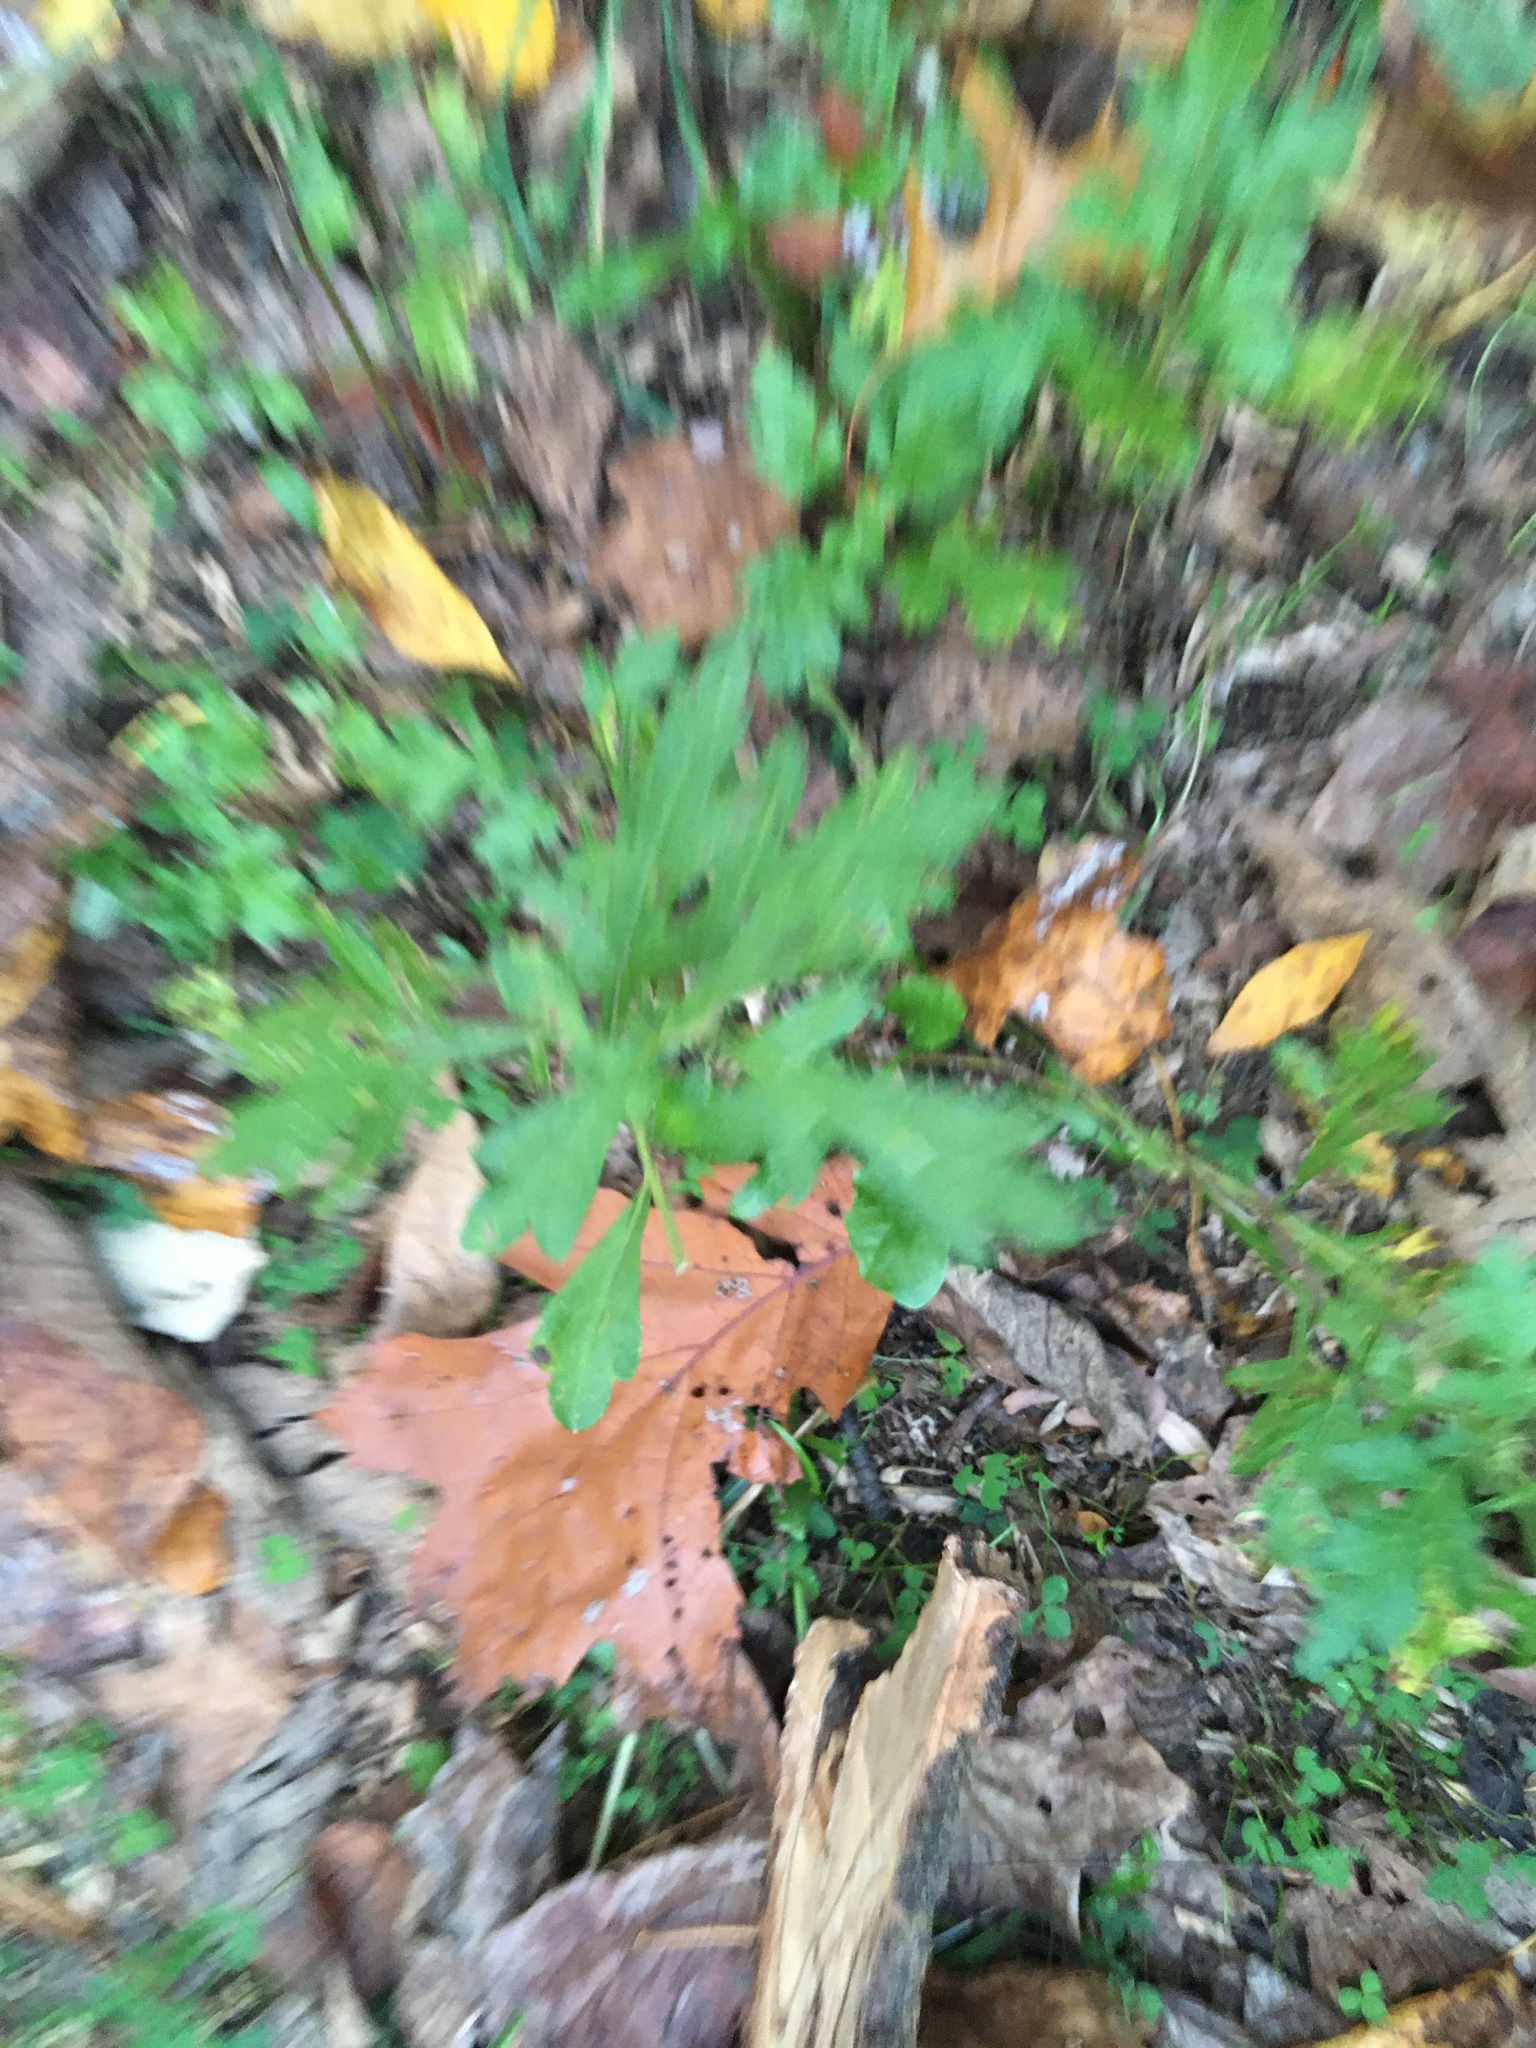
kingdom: Plantae
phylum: Tracheophyta
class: Magnoliopsida
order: Asterales
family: Asteraceae
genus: Artemisia
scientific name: Artemisia vulgaris
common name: Mugwort
